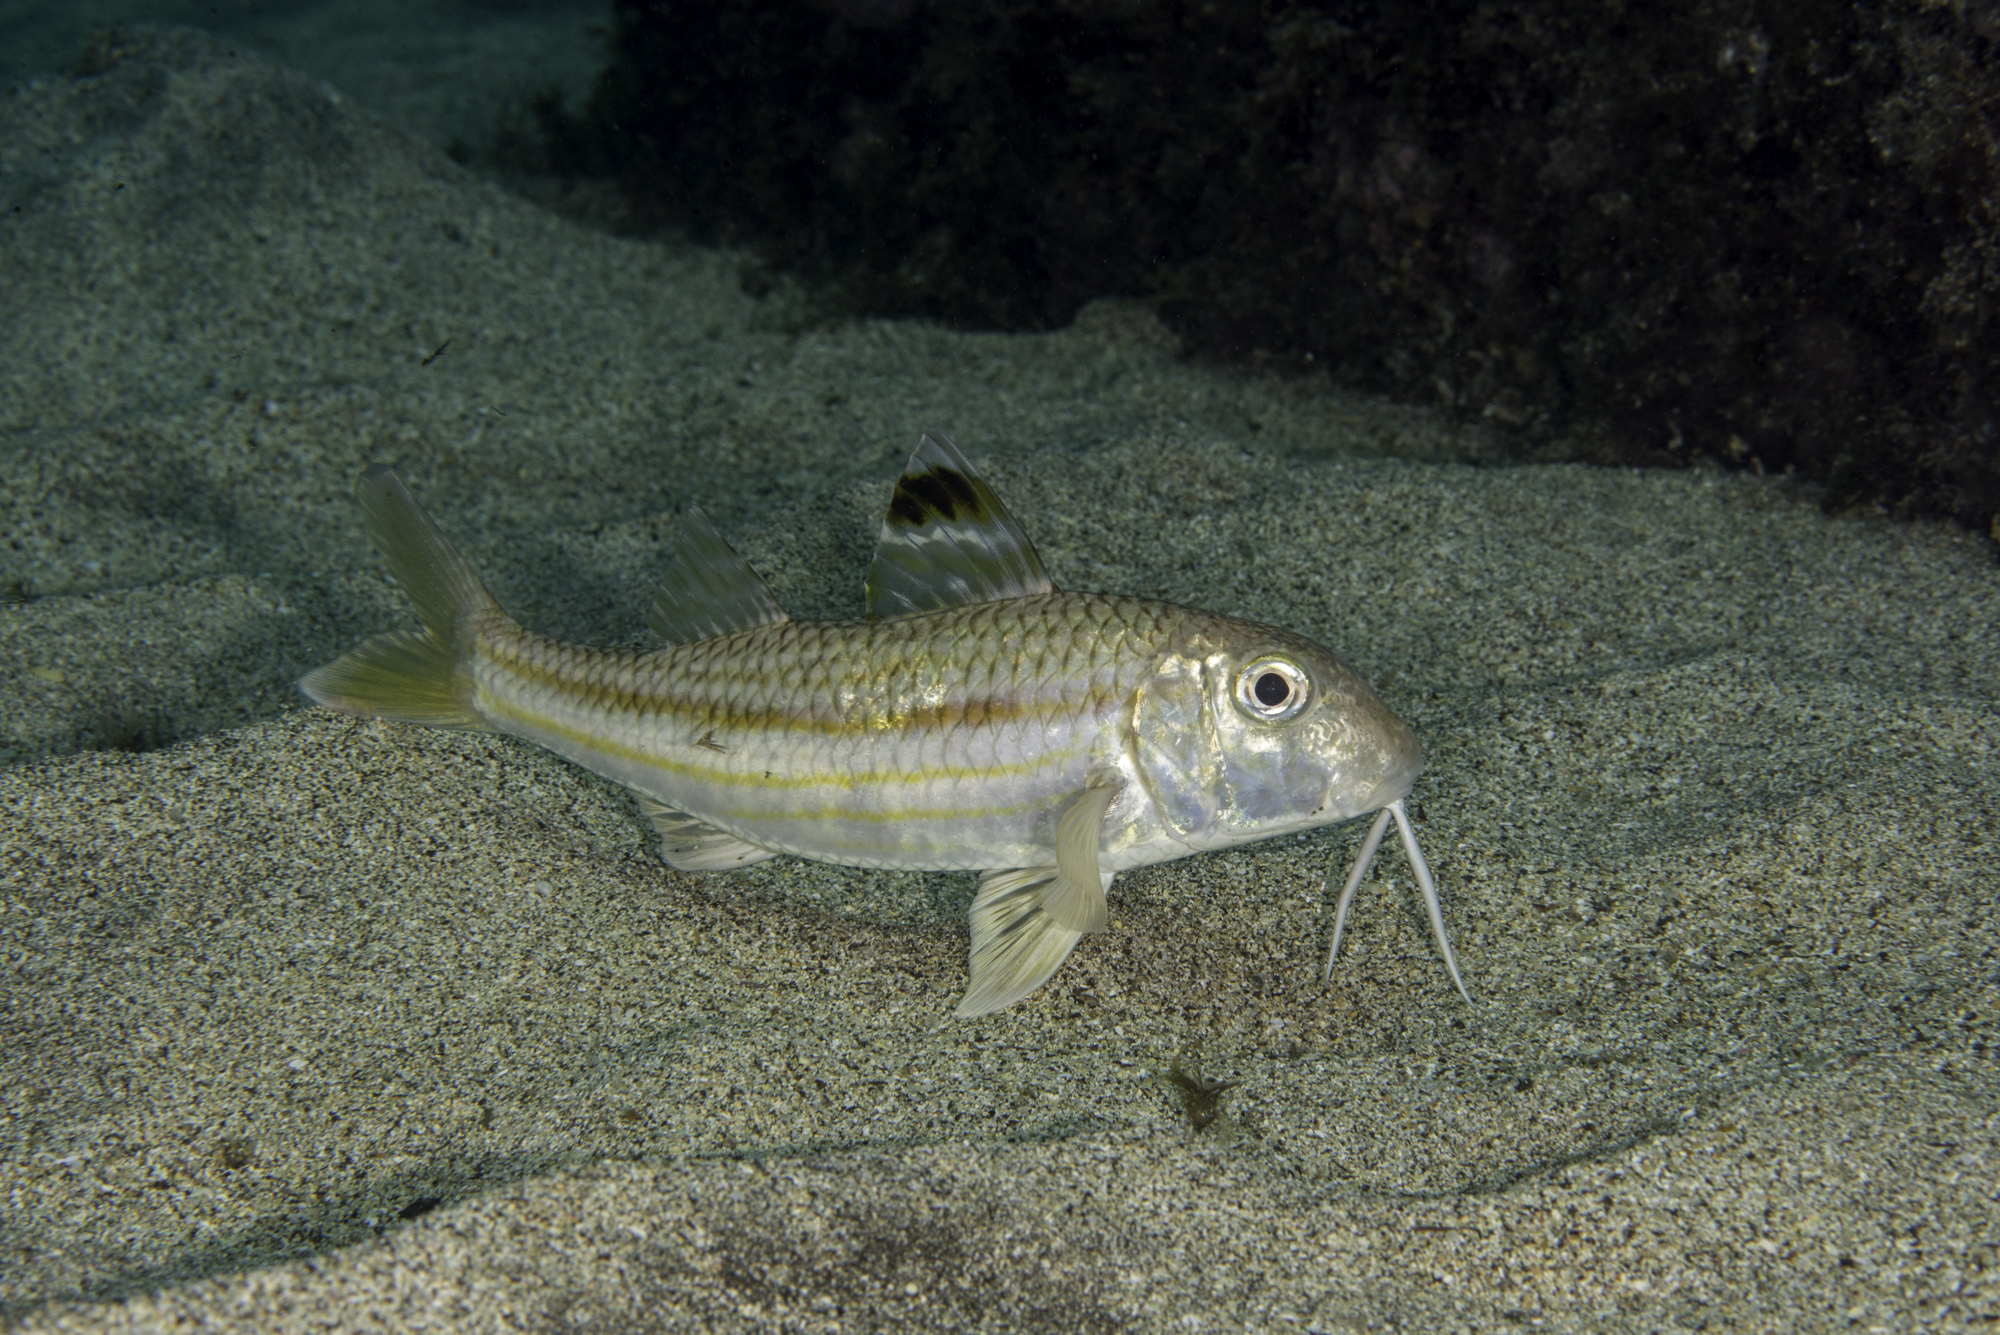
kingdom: Animalia
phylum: Chordata
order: Perciformes
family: Mullidae
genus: Mullus
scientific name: Mullus surmuletus
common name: Red mullet
